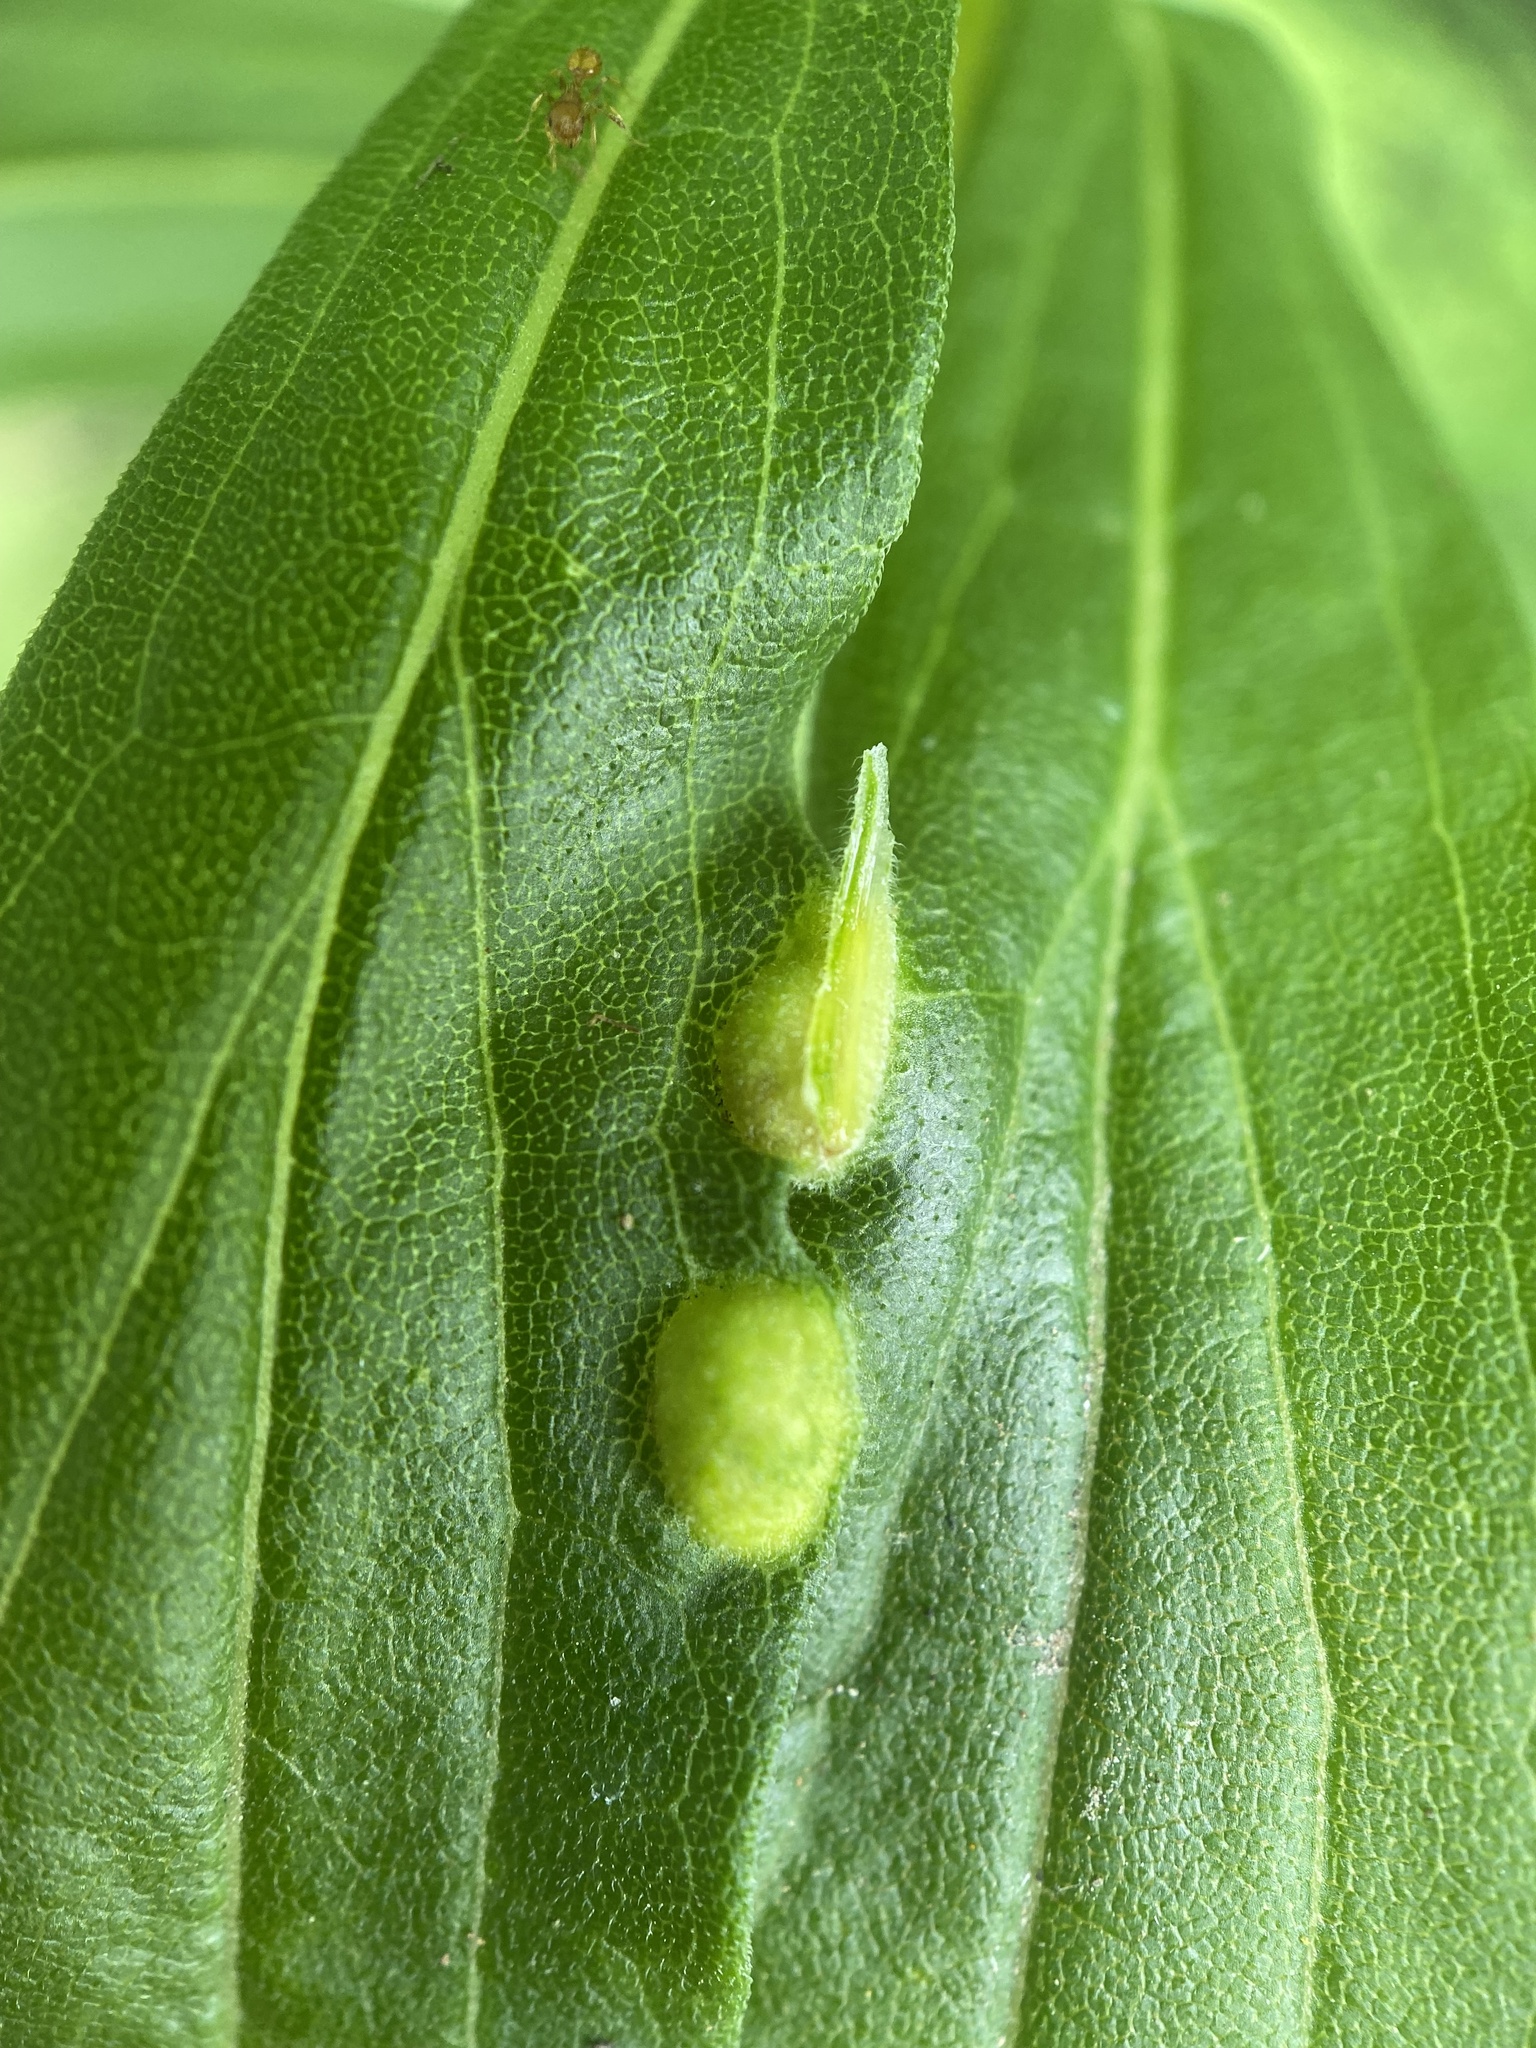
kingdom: Animalia
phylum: Arthropoda
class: Insecta
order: Diptera
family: Cecidomyiidae
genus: Asphondylia
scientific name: Asphondylia solidaginis
